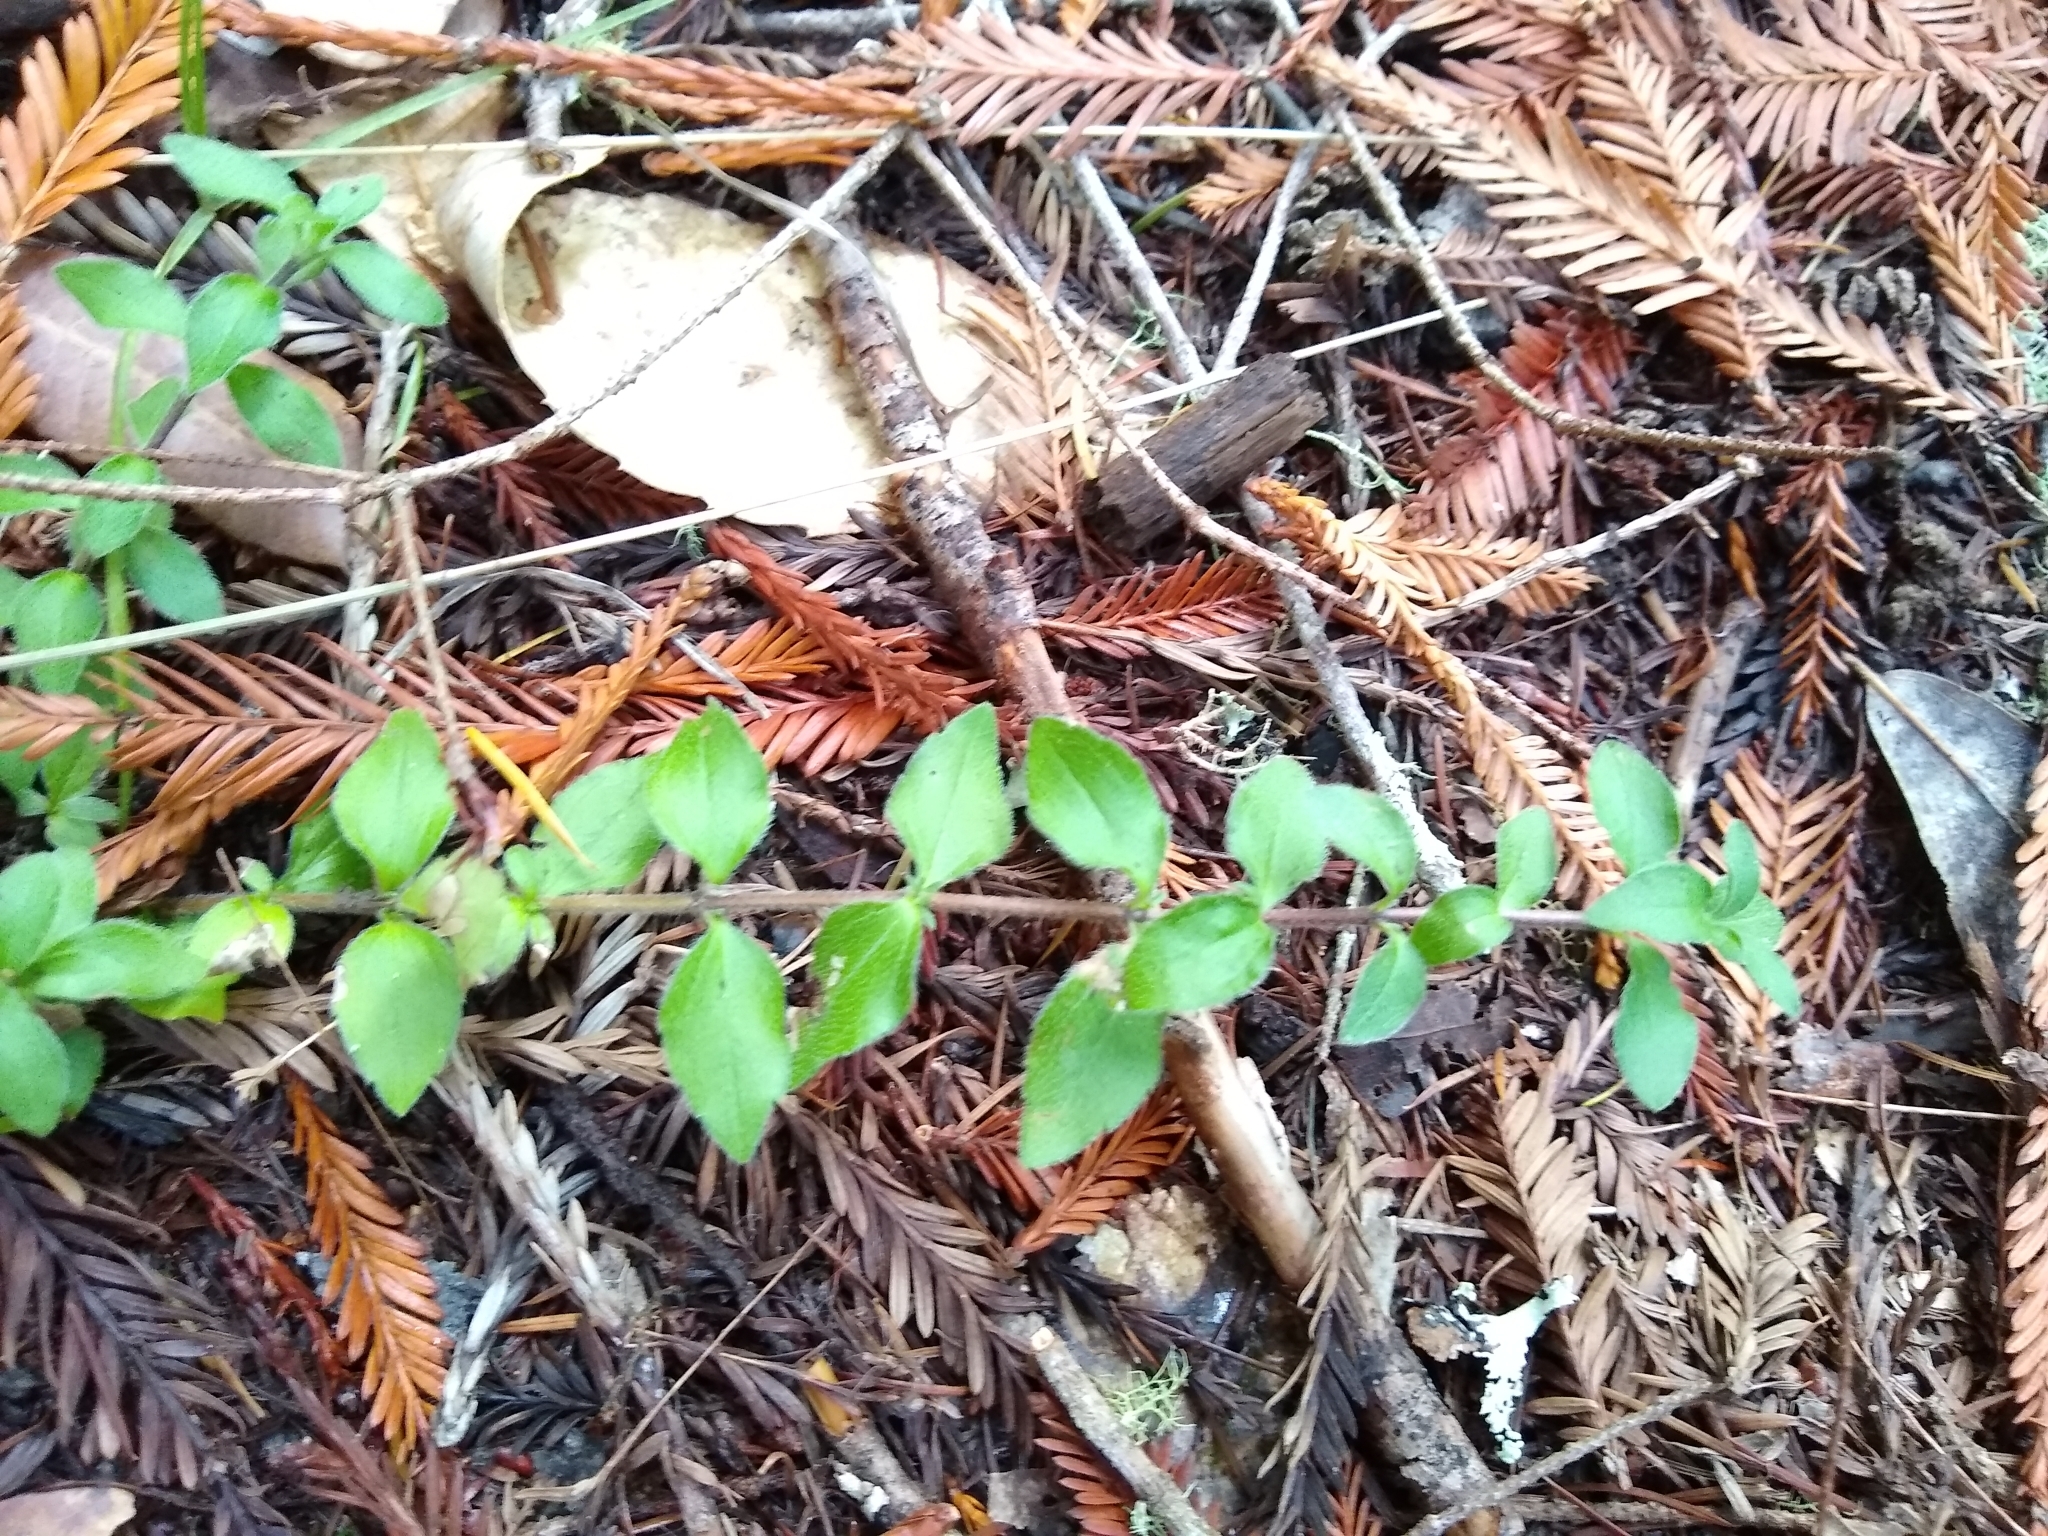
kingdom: Plantae
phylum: Tracheophyta
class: Magnoliopsida
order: Cornales
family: Hydrangeaceae
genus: Whipplea
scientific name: Whipplea modesta
